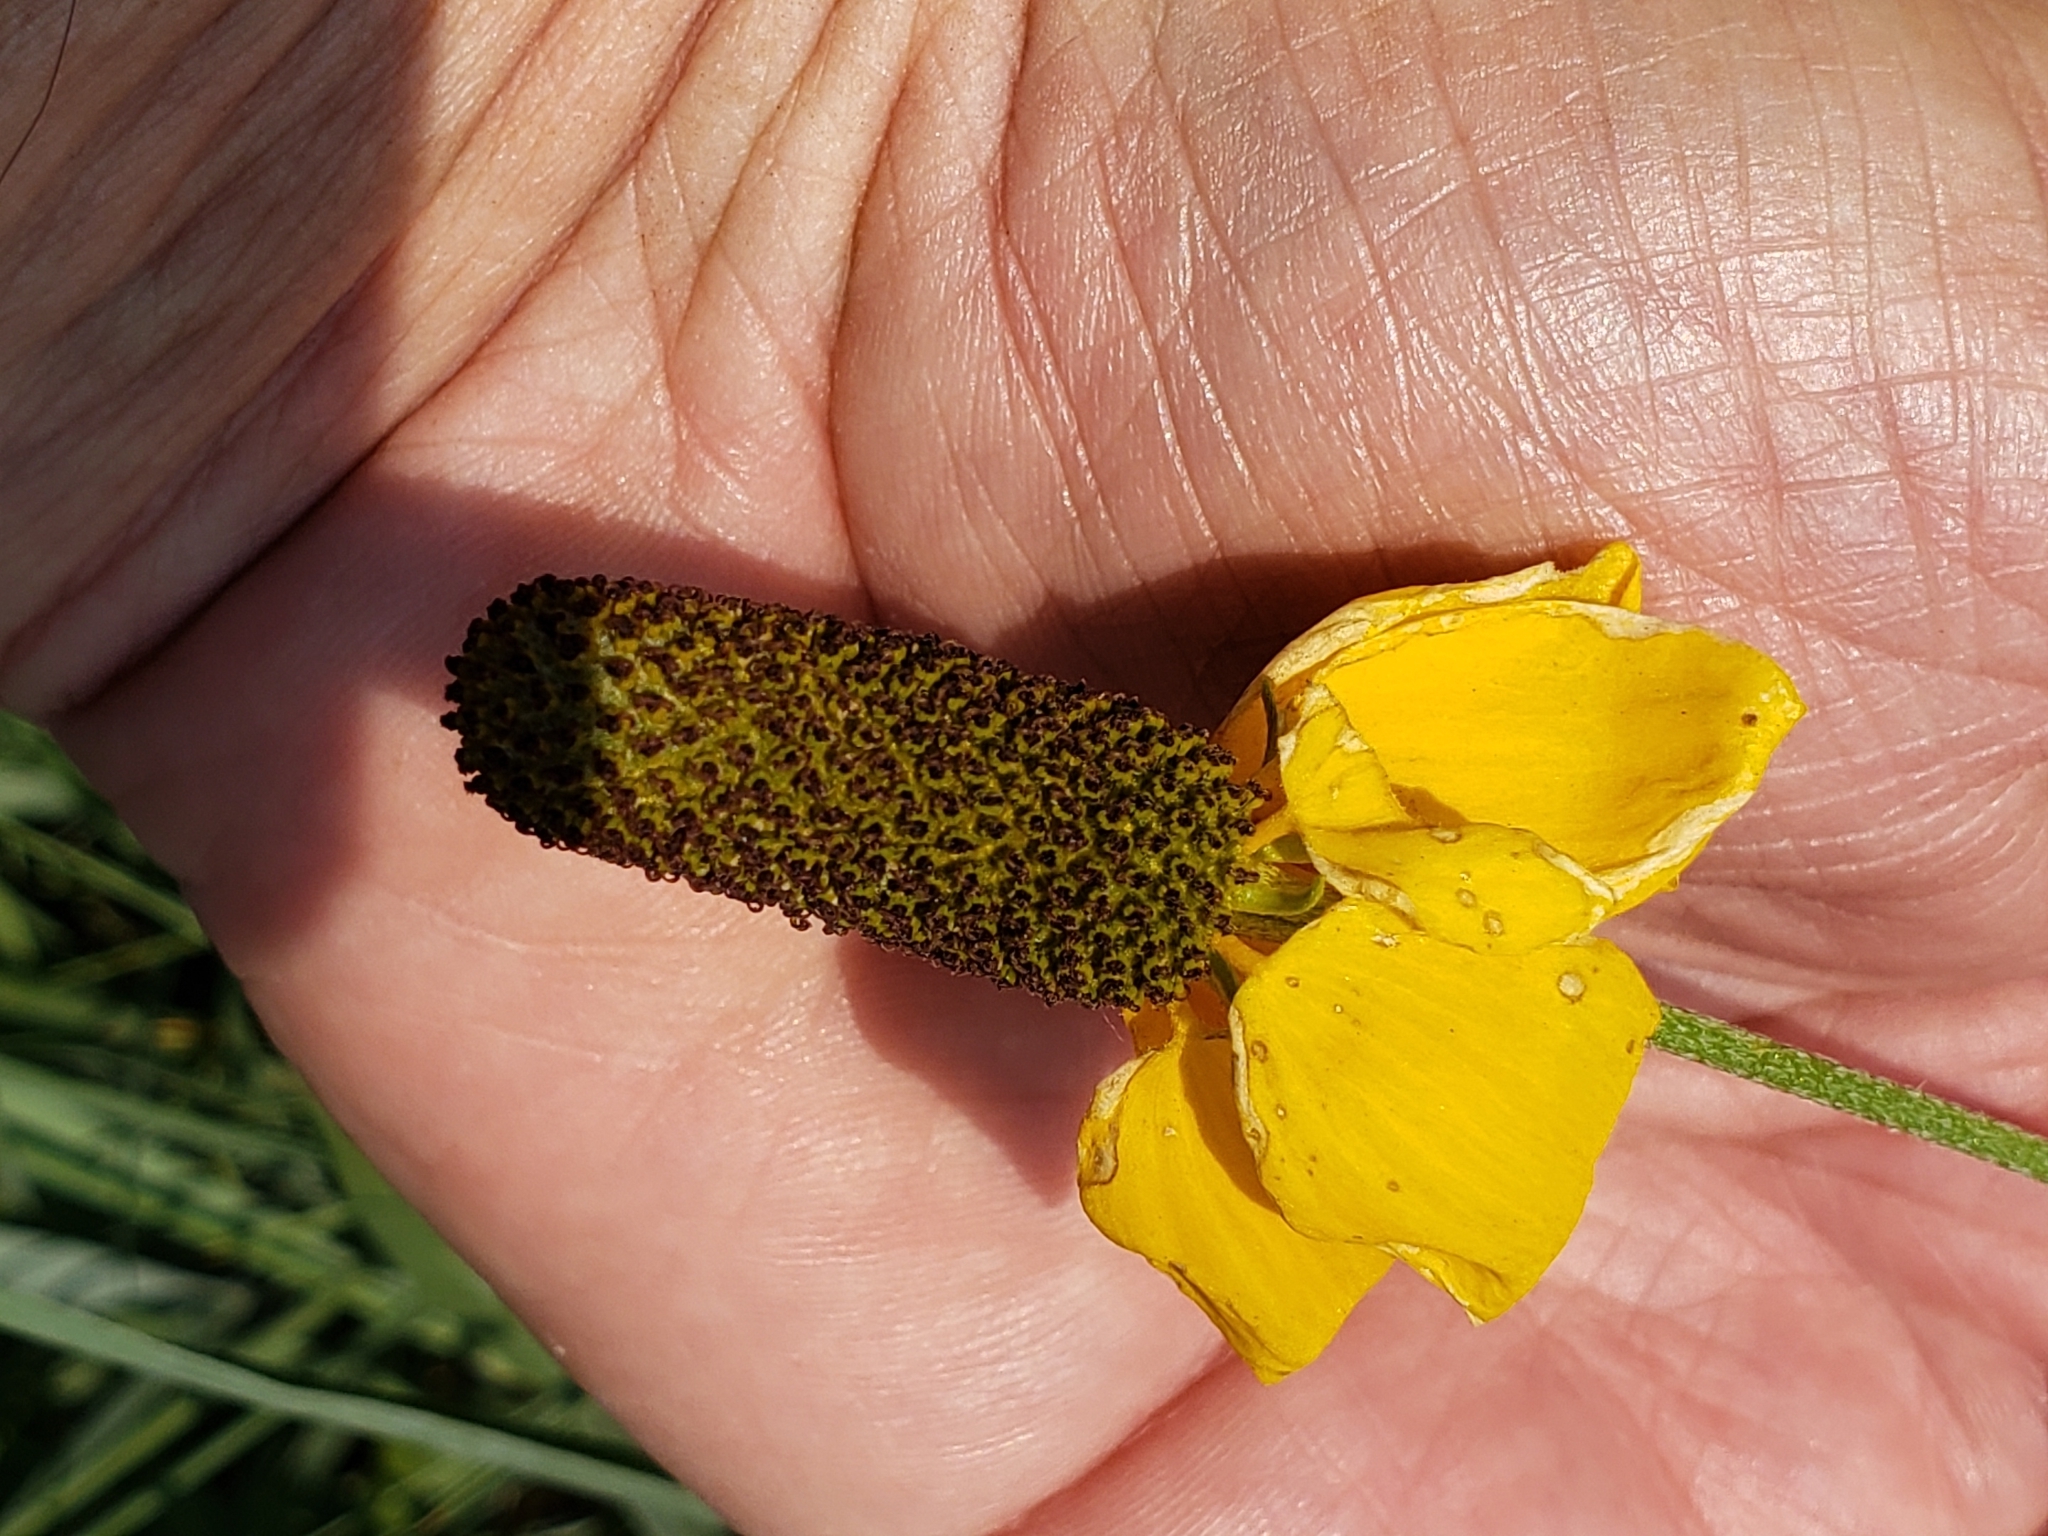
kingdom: Plantae
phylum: Tracheophyta
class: Magnoliopsida
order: Asterales
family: Asteraceae
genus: Ratibida
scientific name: Ratibida columnifera
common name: Prairie coneflower
